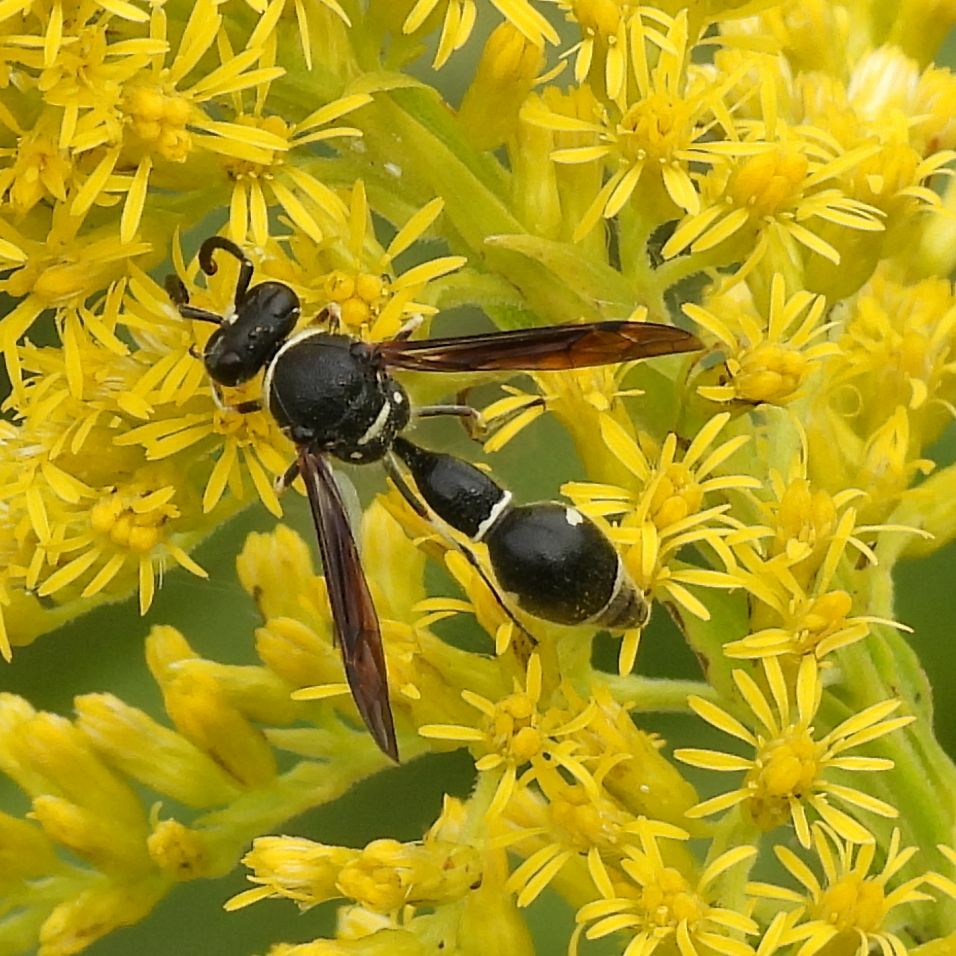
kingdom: Animalia
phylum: Arthropoda
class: Insecta
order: Hymenoptera
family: Vespidae
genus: Eumenes
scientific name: Eumenes fraternus
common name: Fraternal potter wasp
